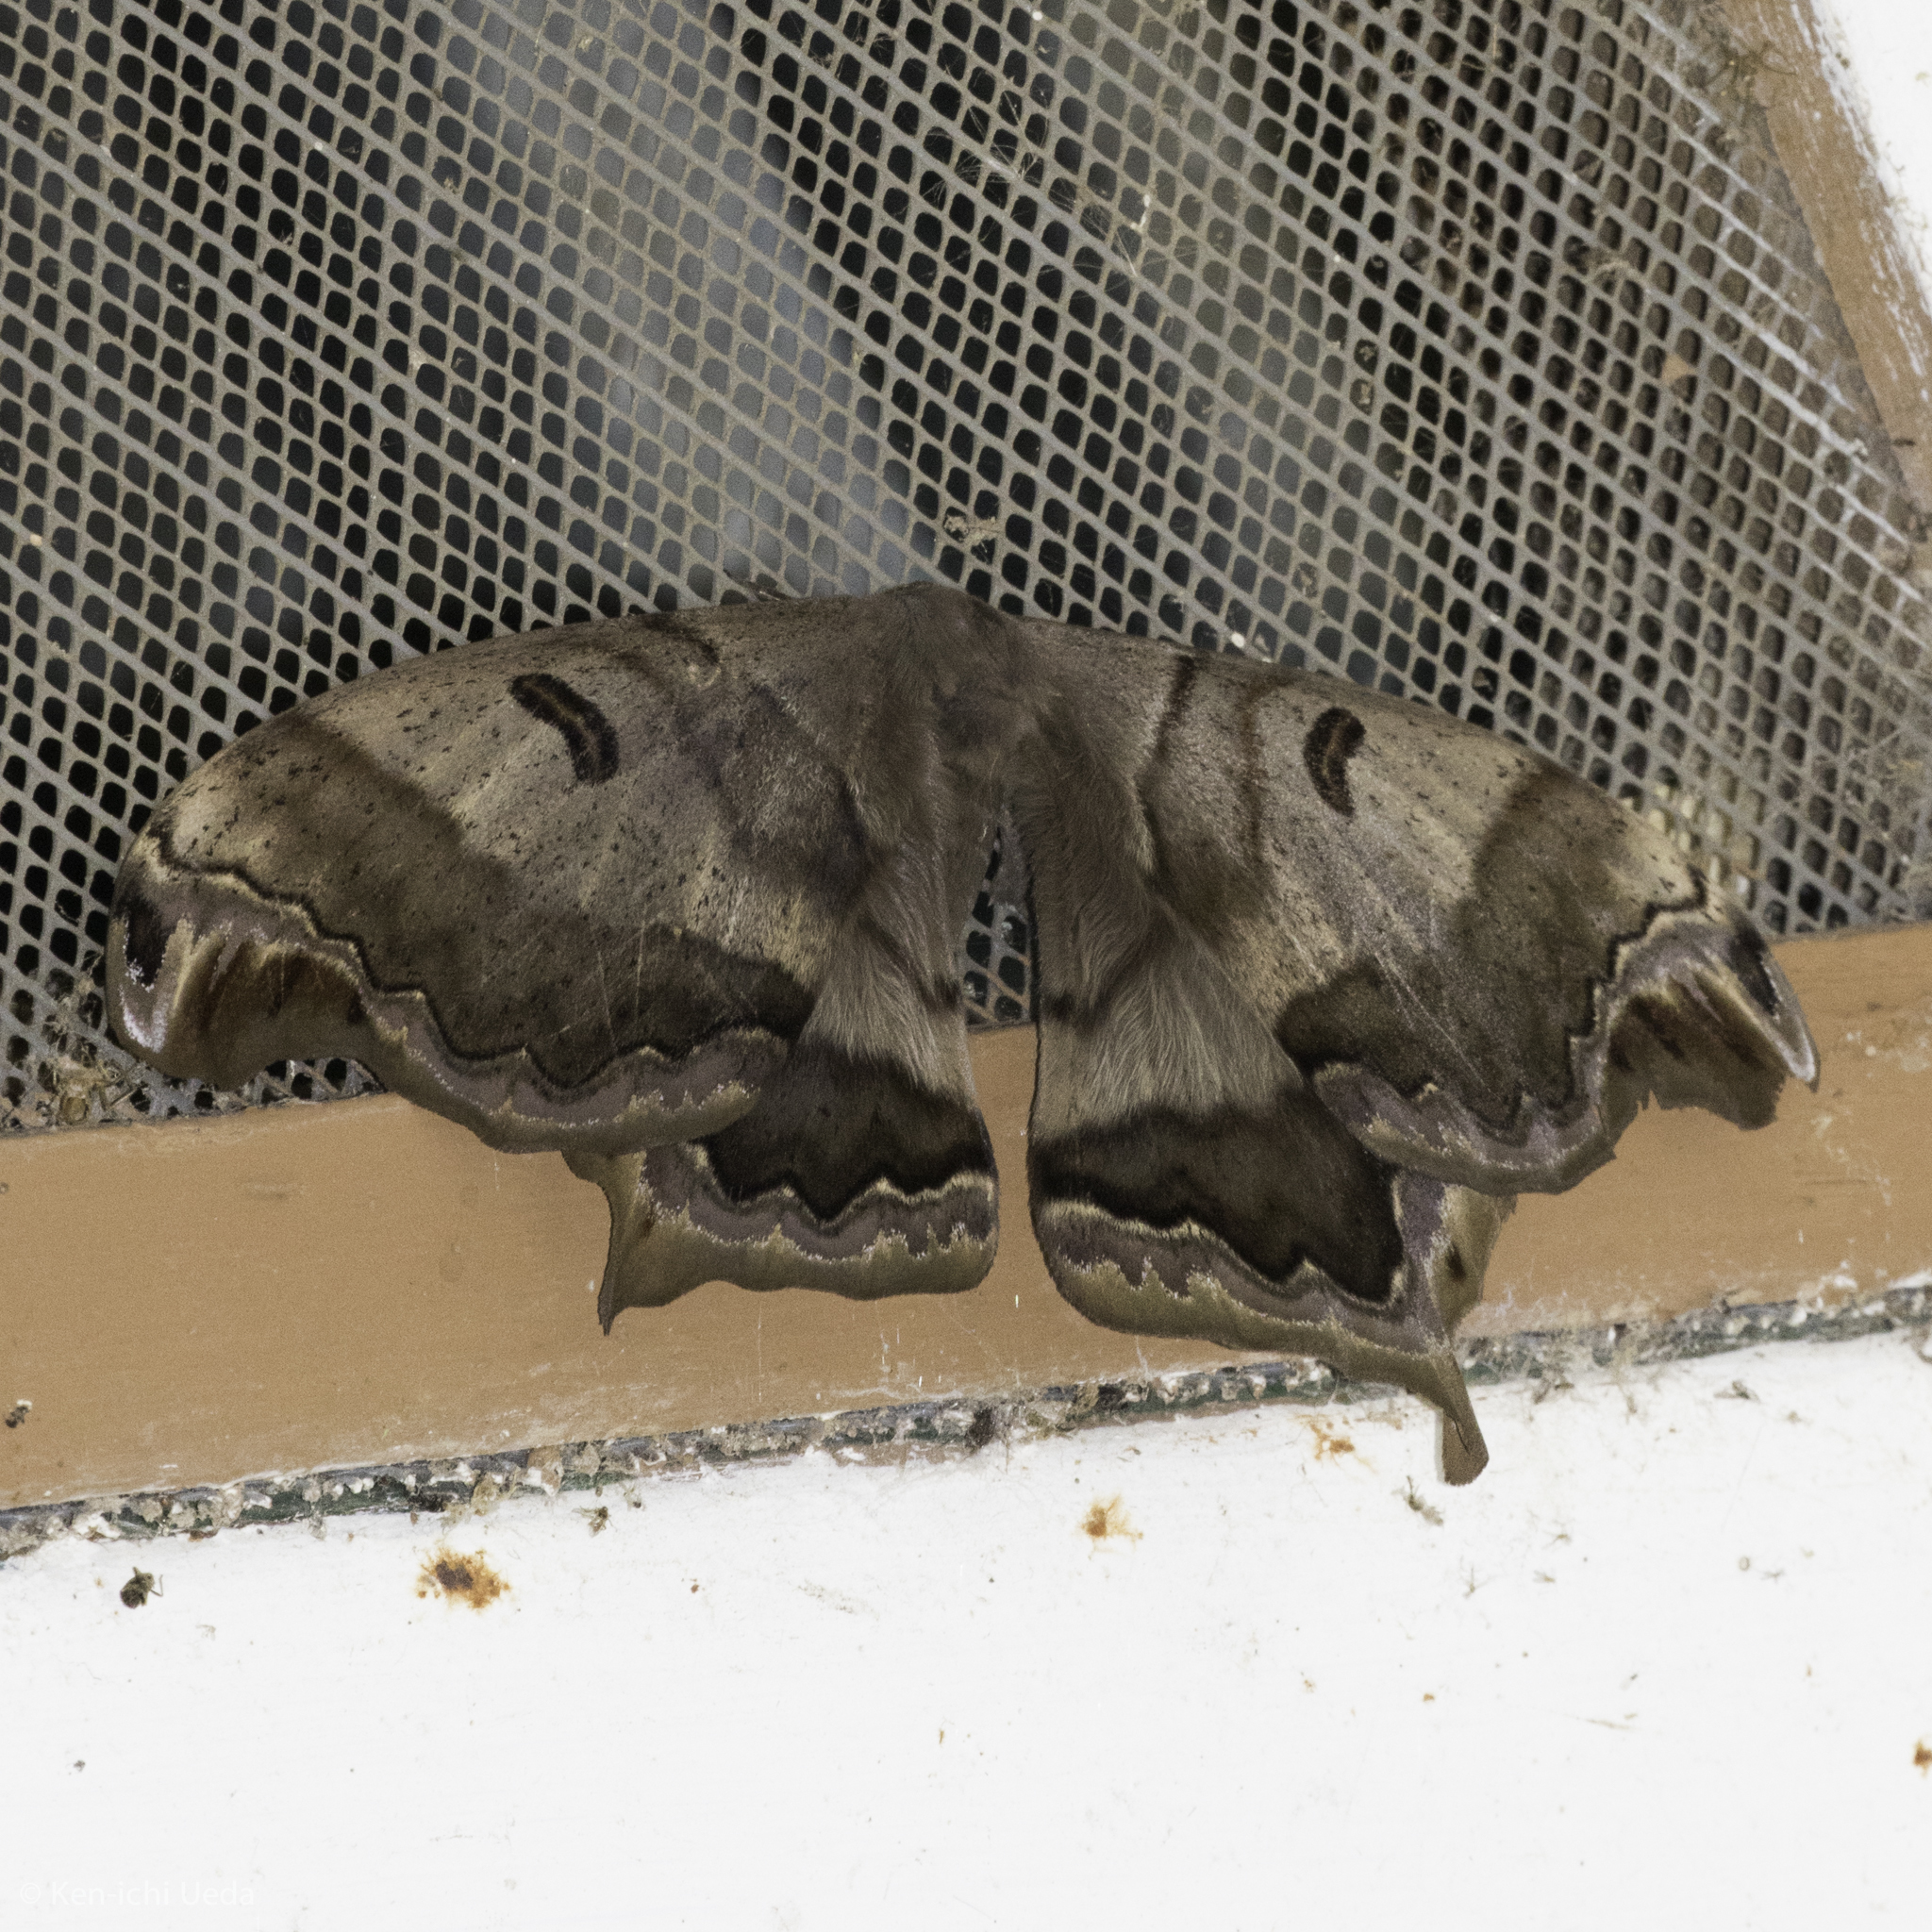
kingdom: Animalia
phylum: Arthropoda
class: Insecta
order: Lepidoptera
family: Saturniidae
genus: Caio
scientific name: Caio championi
